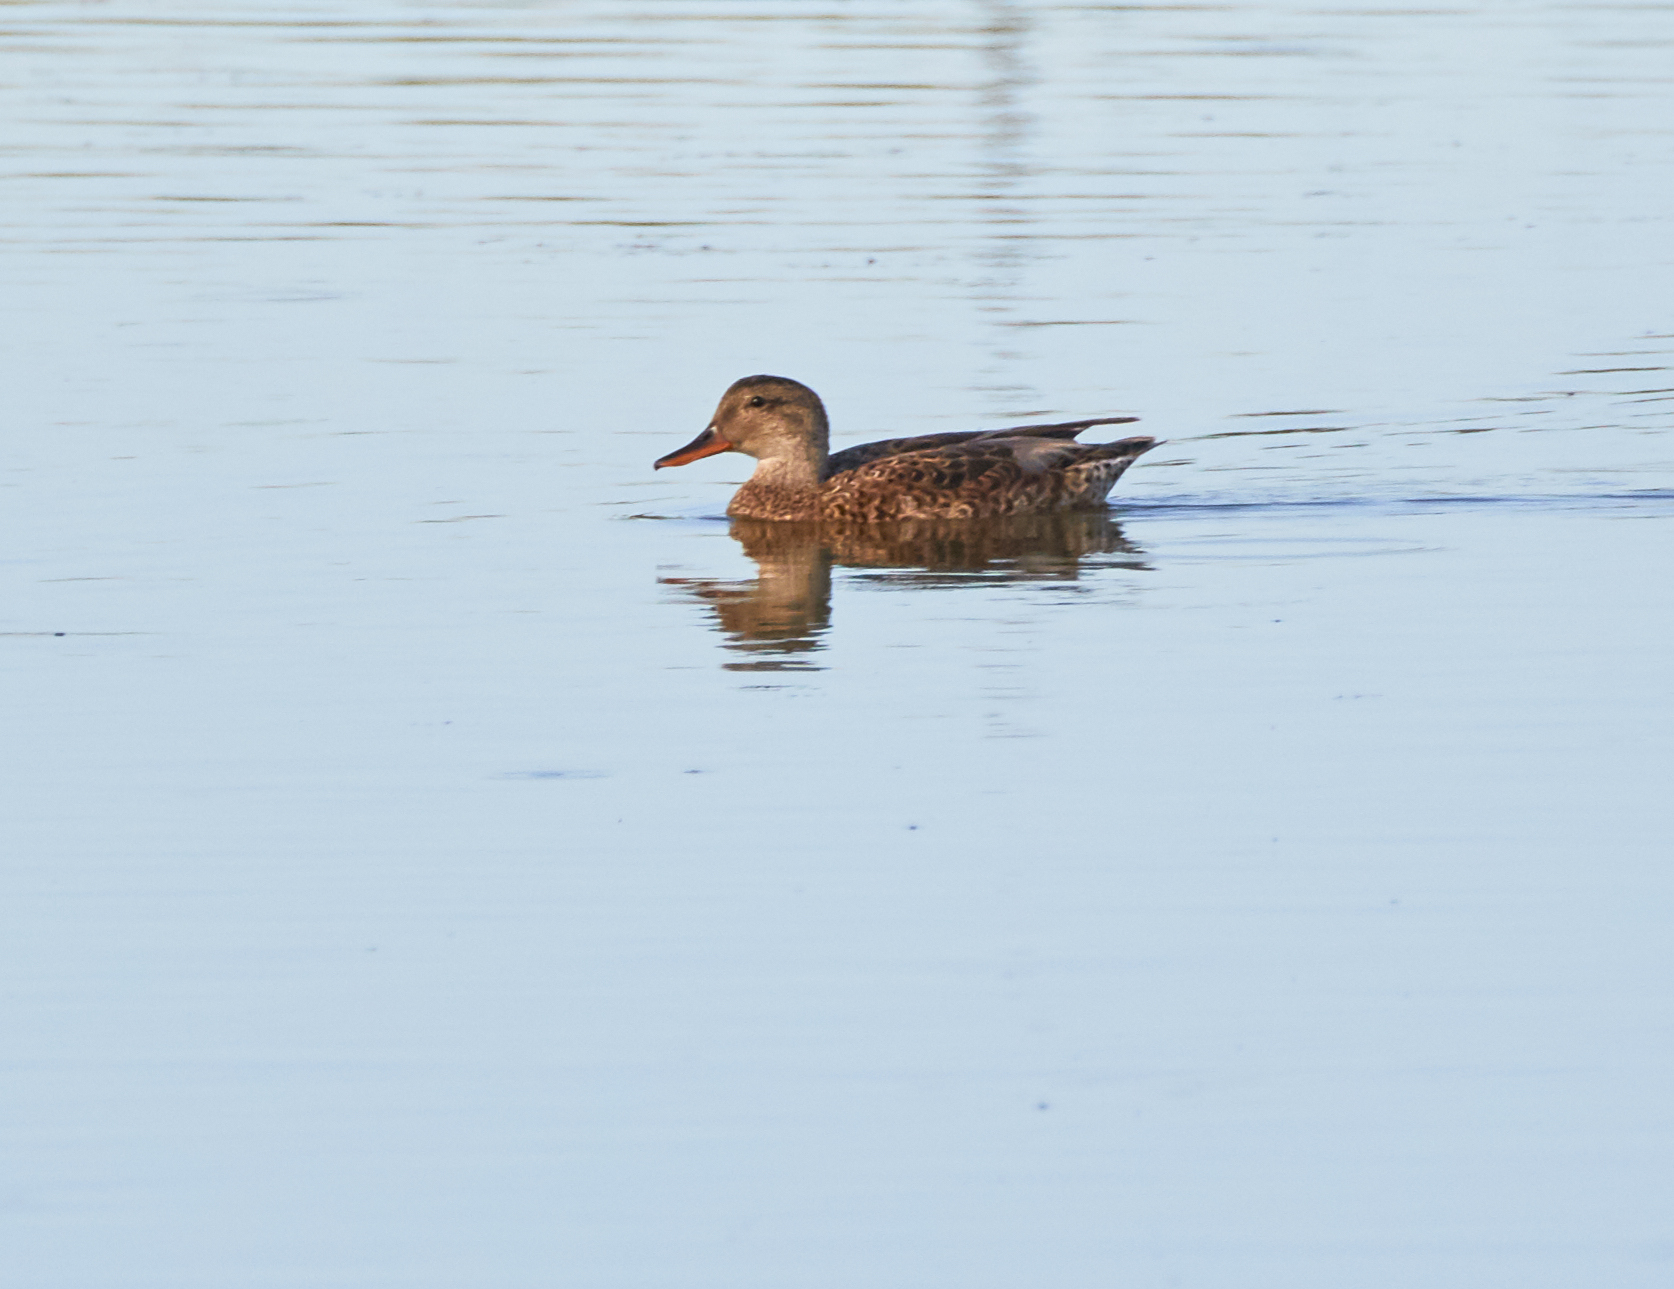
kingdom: Animalia
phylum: Chordata
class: Aves
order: Anseriformes
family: Anatidae
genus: Mareca
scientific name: Mareca strepera
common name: Gadwall
